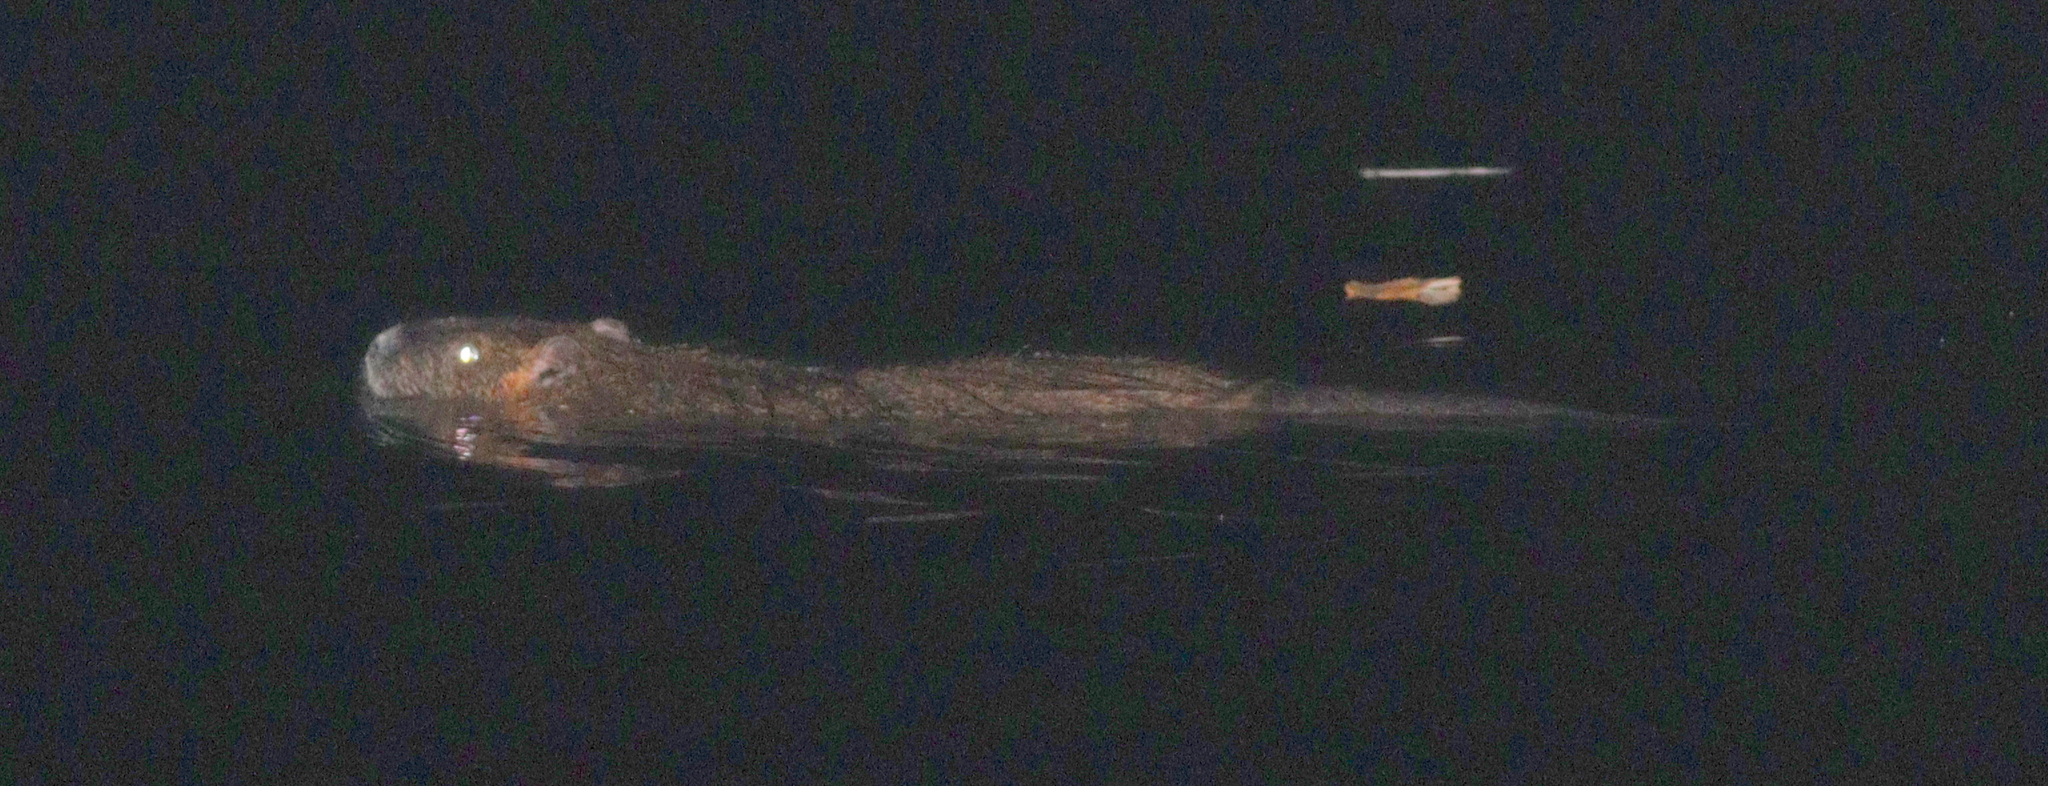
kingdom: Animalia
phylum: Chordata
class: Mammalia
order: Rodentia
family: Myocastoridae
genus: Myocastor
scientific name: Myocastor coypus
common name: Coypu
